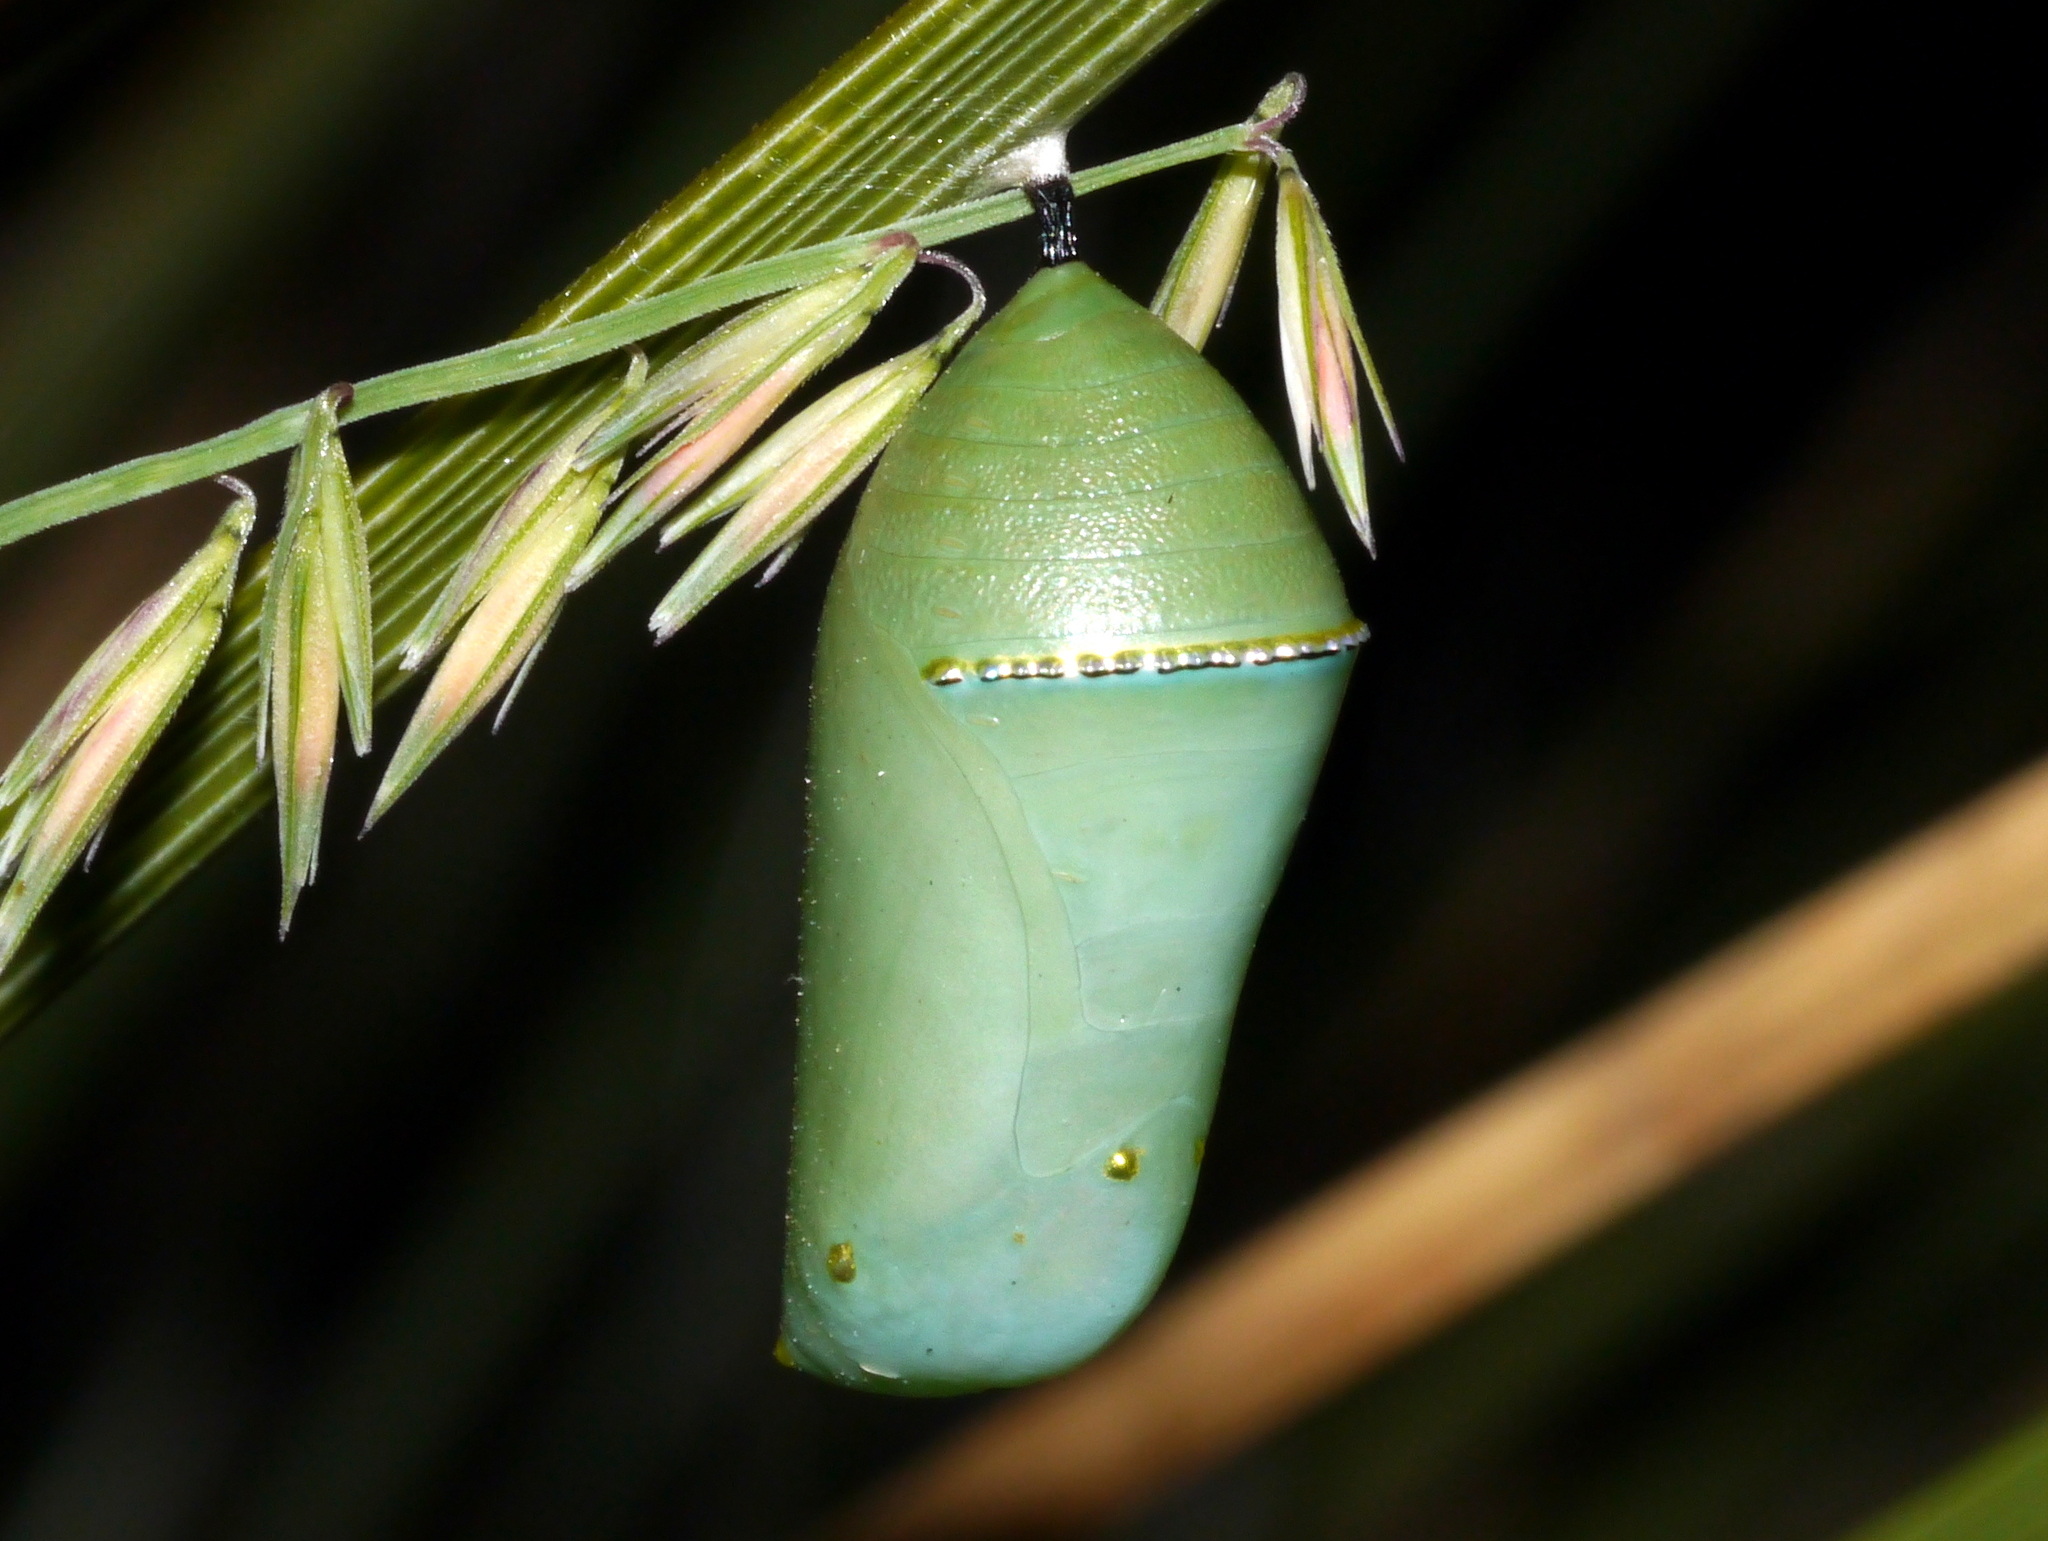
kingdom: Animalia
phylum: Arthropoda
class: Insecta
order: Lepidoptera
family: Nymphalidae
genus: Danaus
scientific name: Danaus plexippus
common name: Monarch
